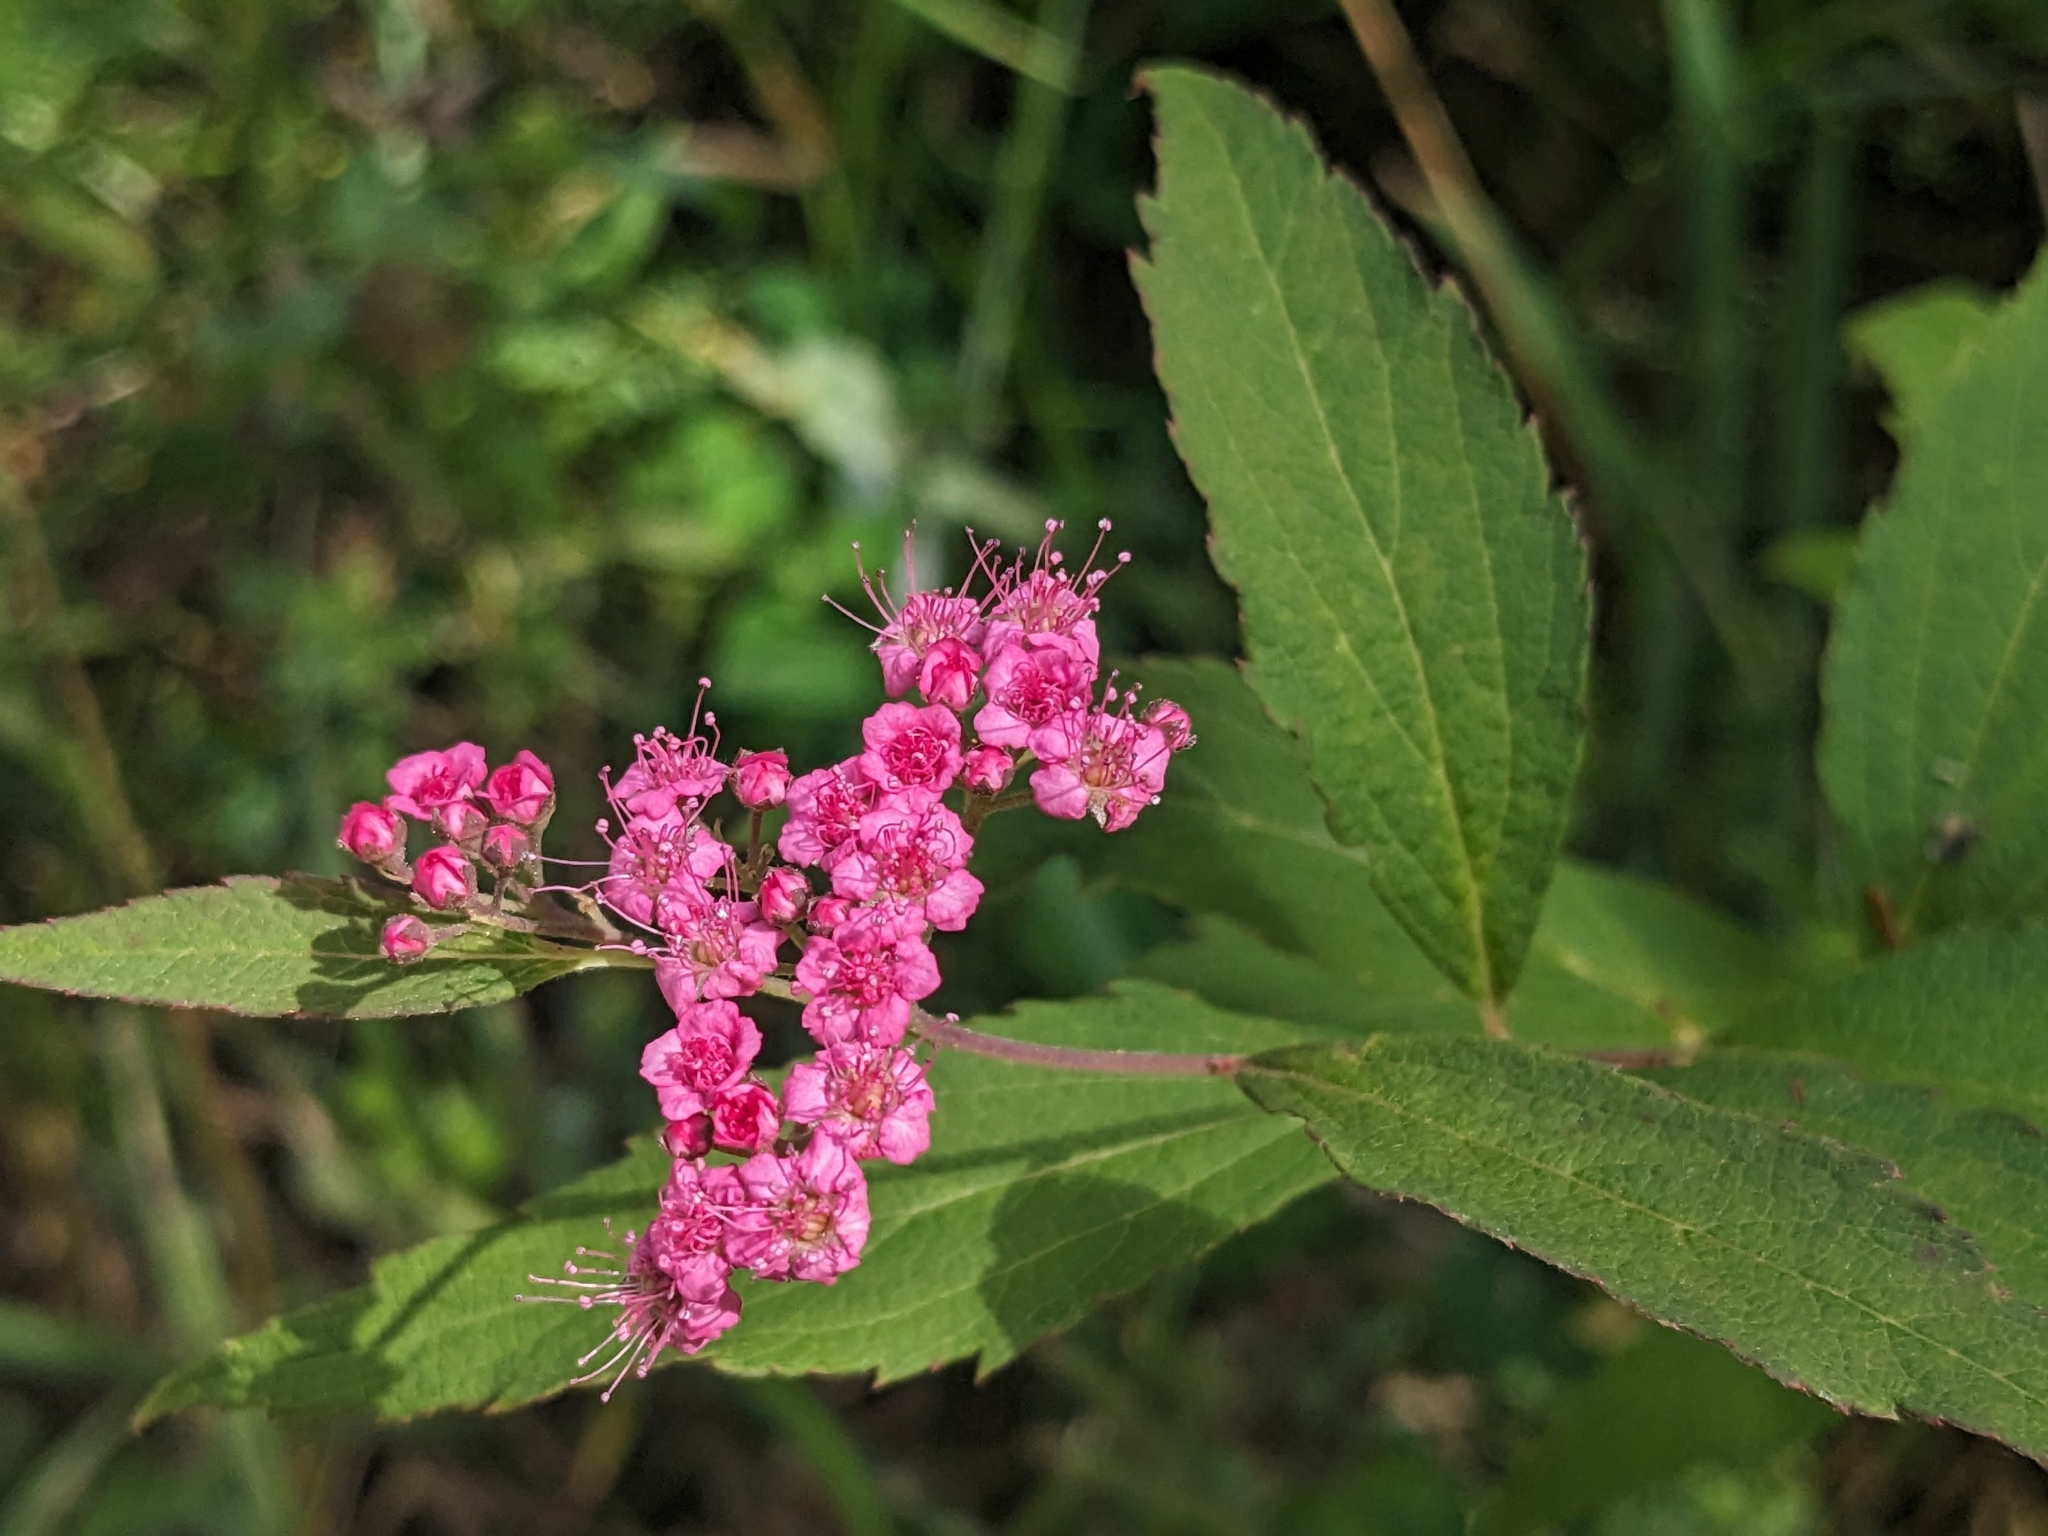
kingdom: Plantae
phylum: Tracheophyta
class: Magnoliopsida
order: Rosales
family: Rosaceae
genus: Spiraea
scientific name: Spiraea japonica
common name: Japanese spiraea
